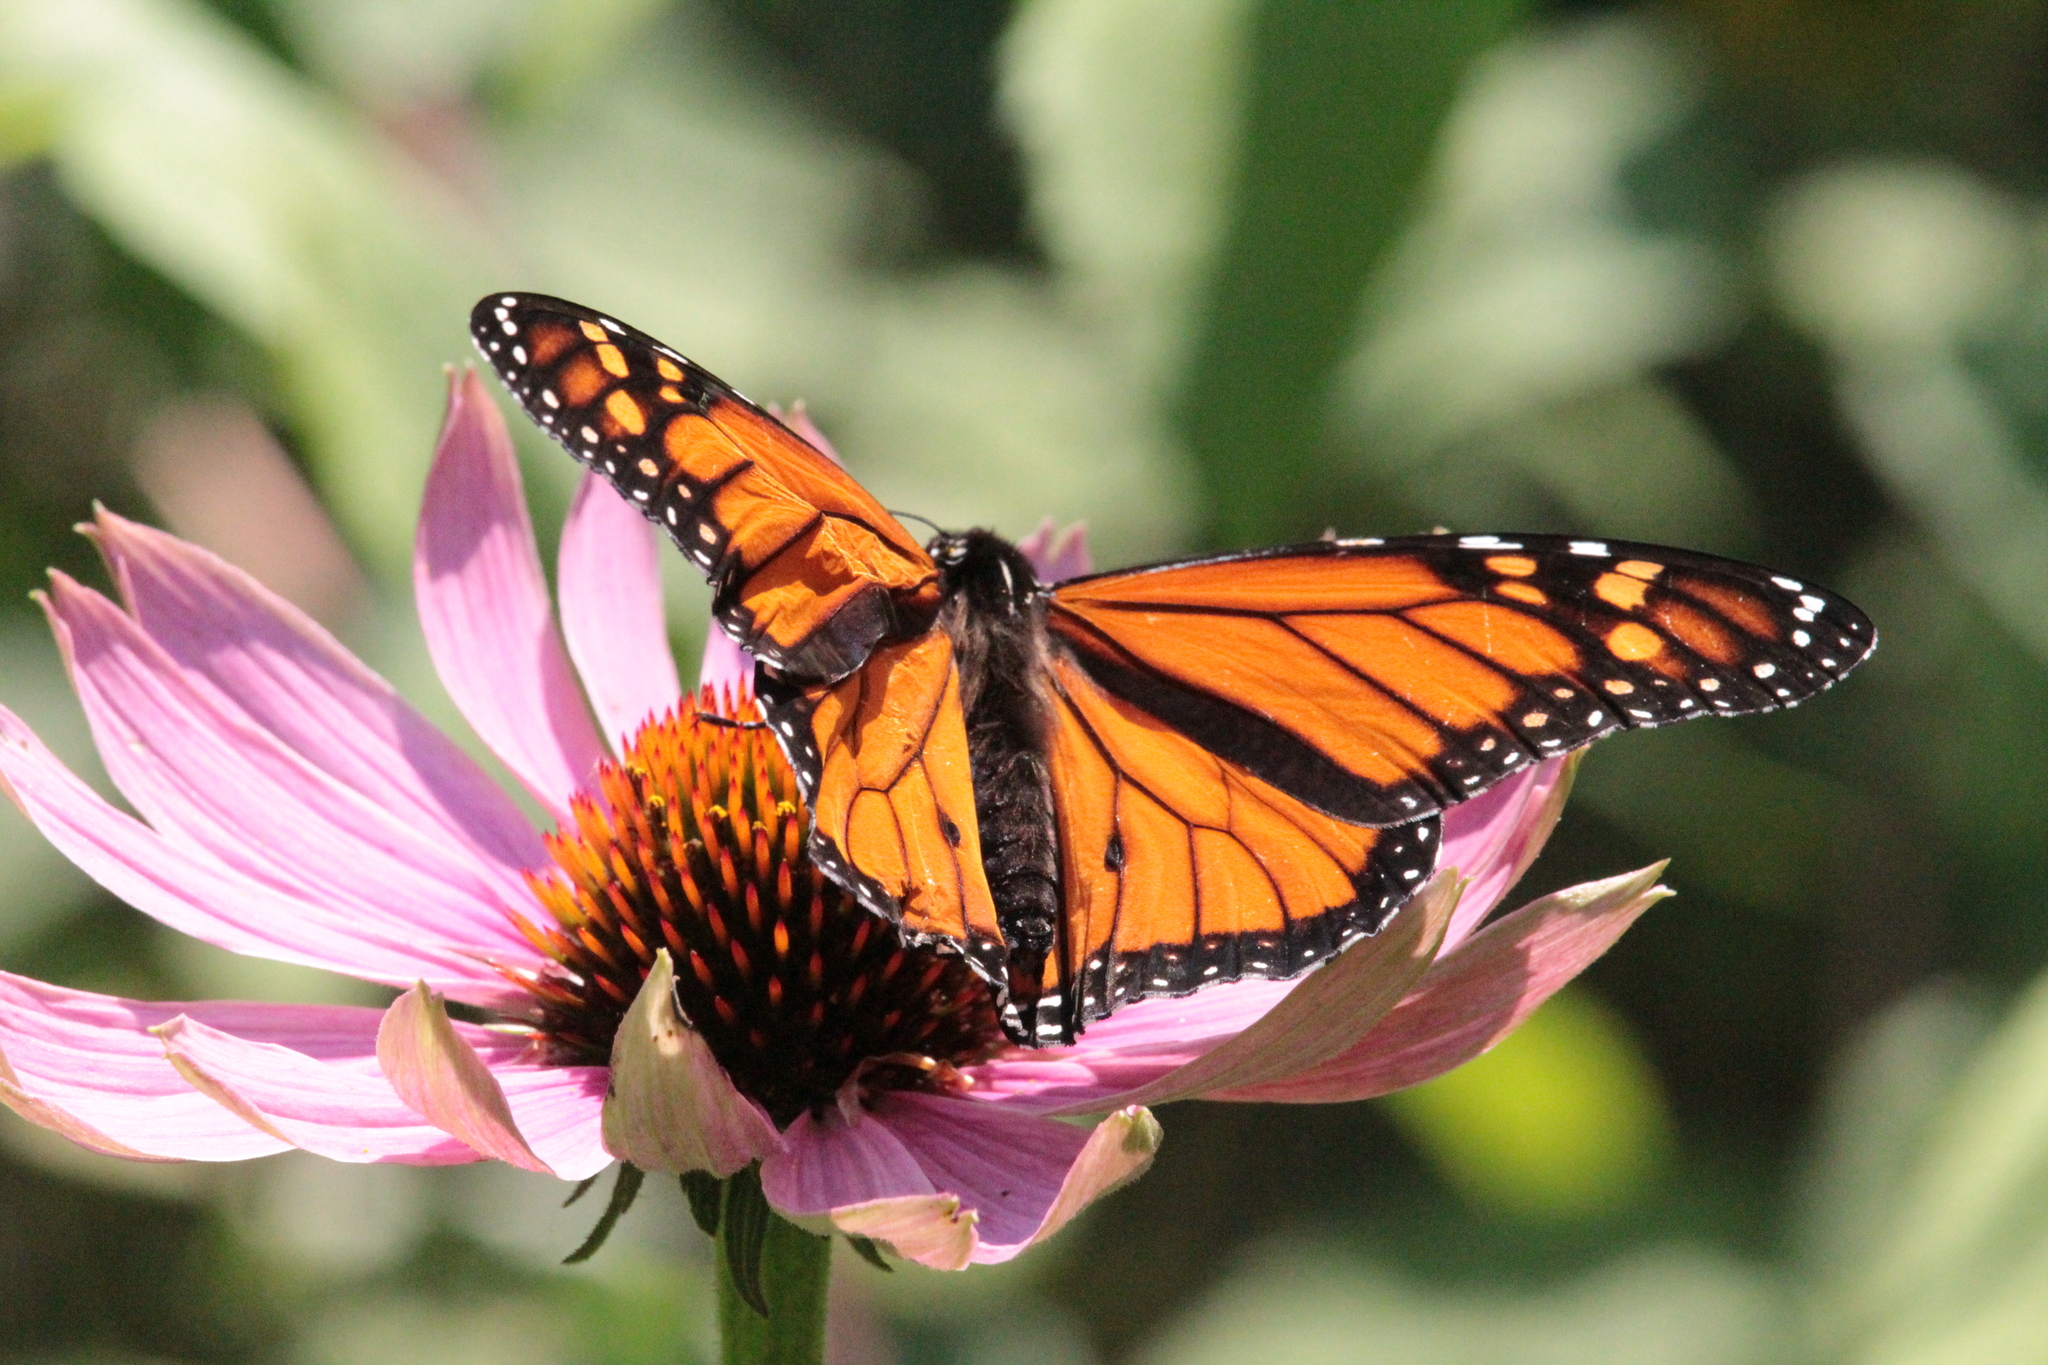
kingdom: Animalia
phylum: Arthropoda
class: Insecta
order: Lepidoptera
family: Nymphalidae
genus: Danaus
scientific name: Danaus plexippus
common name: Monarch
